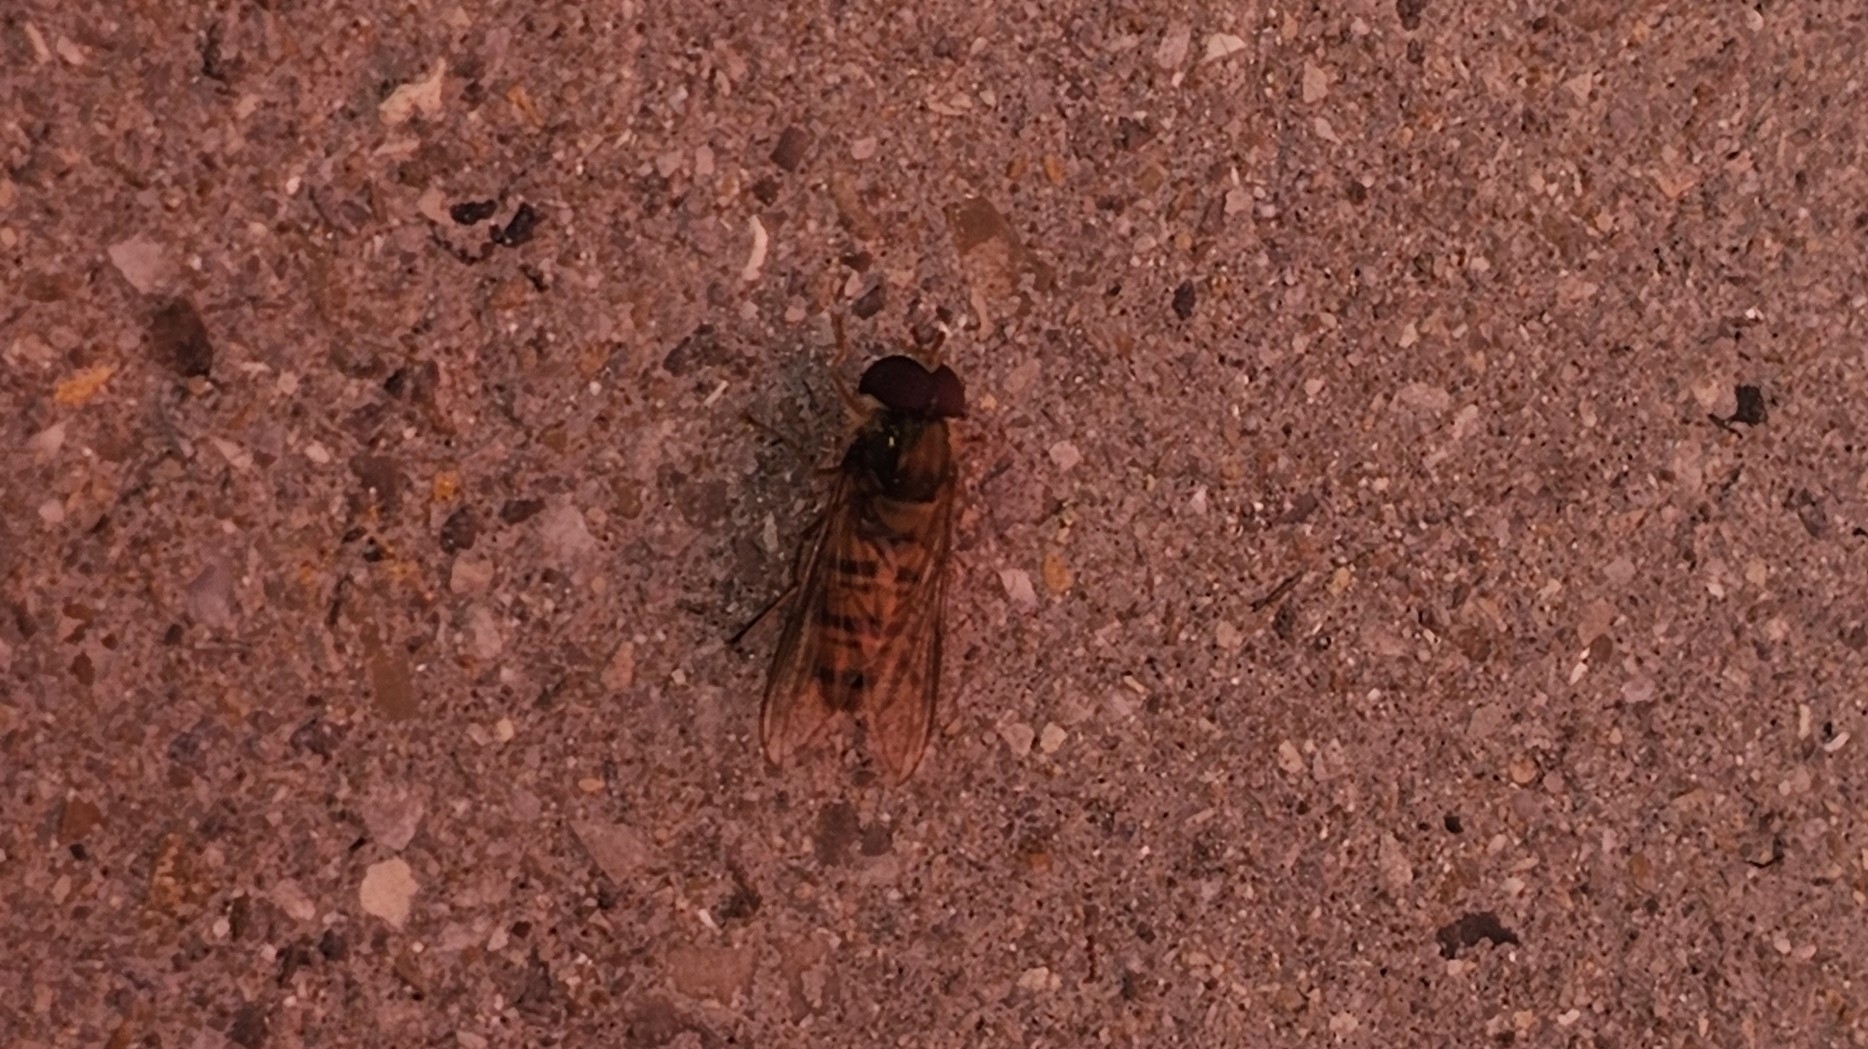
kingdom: Animalia
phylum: Arthropoda
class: Insecta
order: Diptera
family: Syrphidae
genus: Episyrphus
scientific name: Episyrphus balteatus
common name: Marmalade hoverfly
